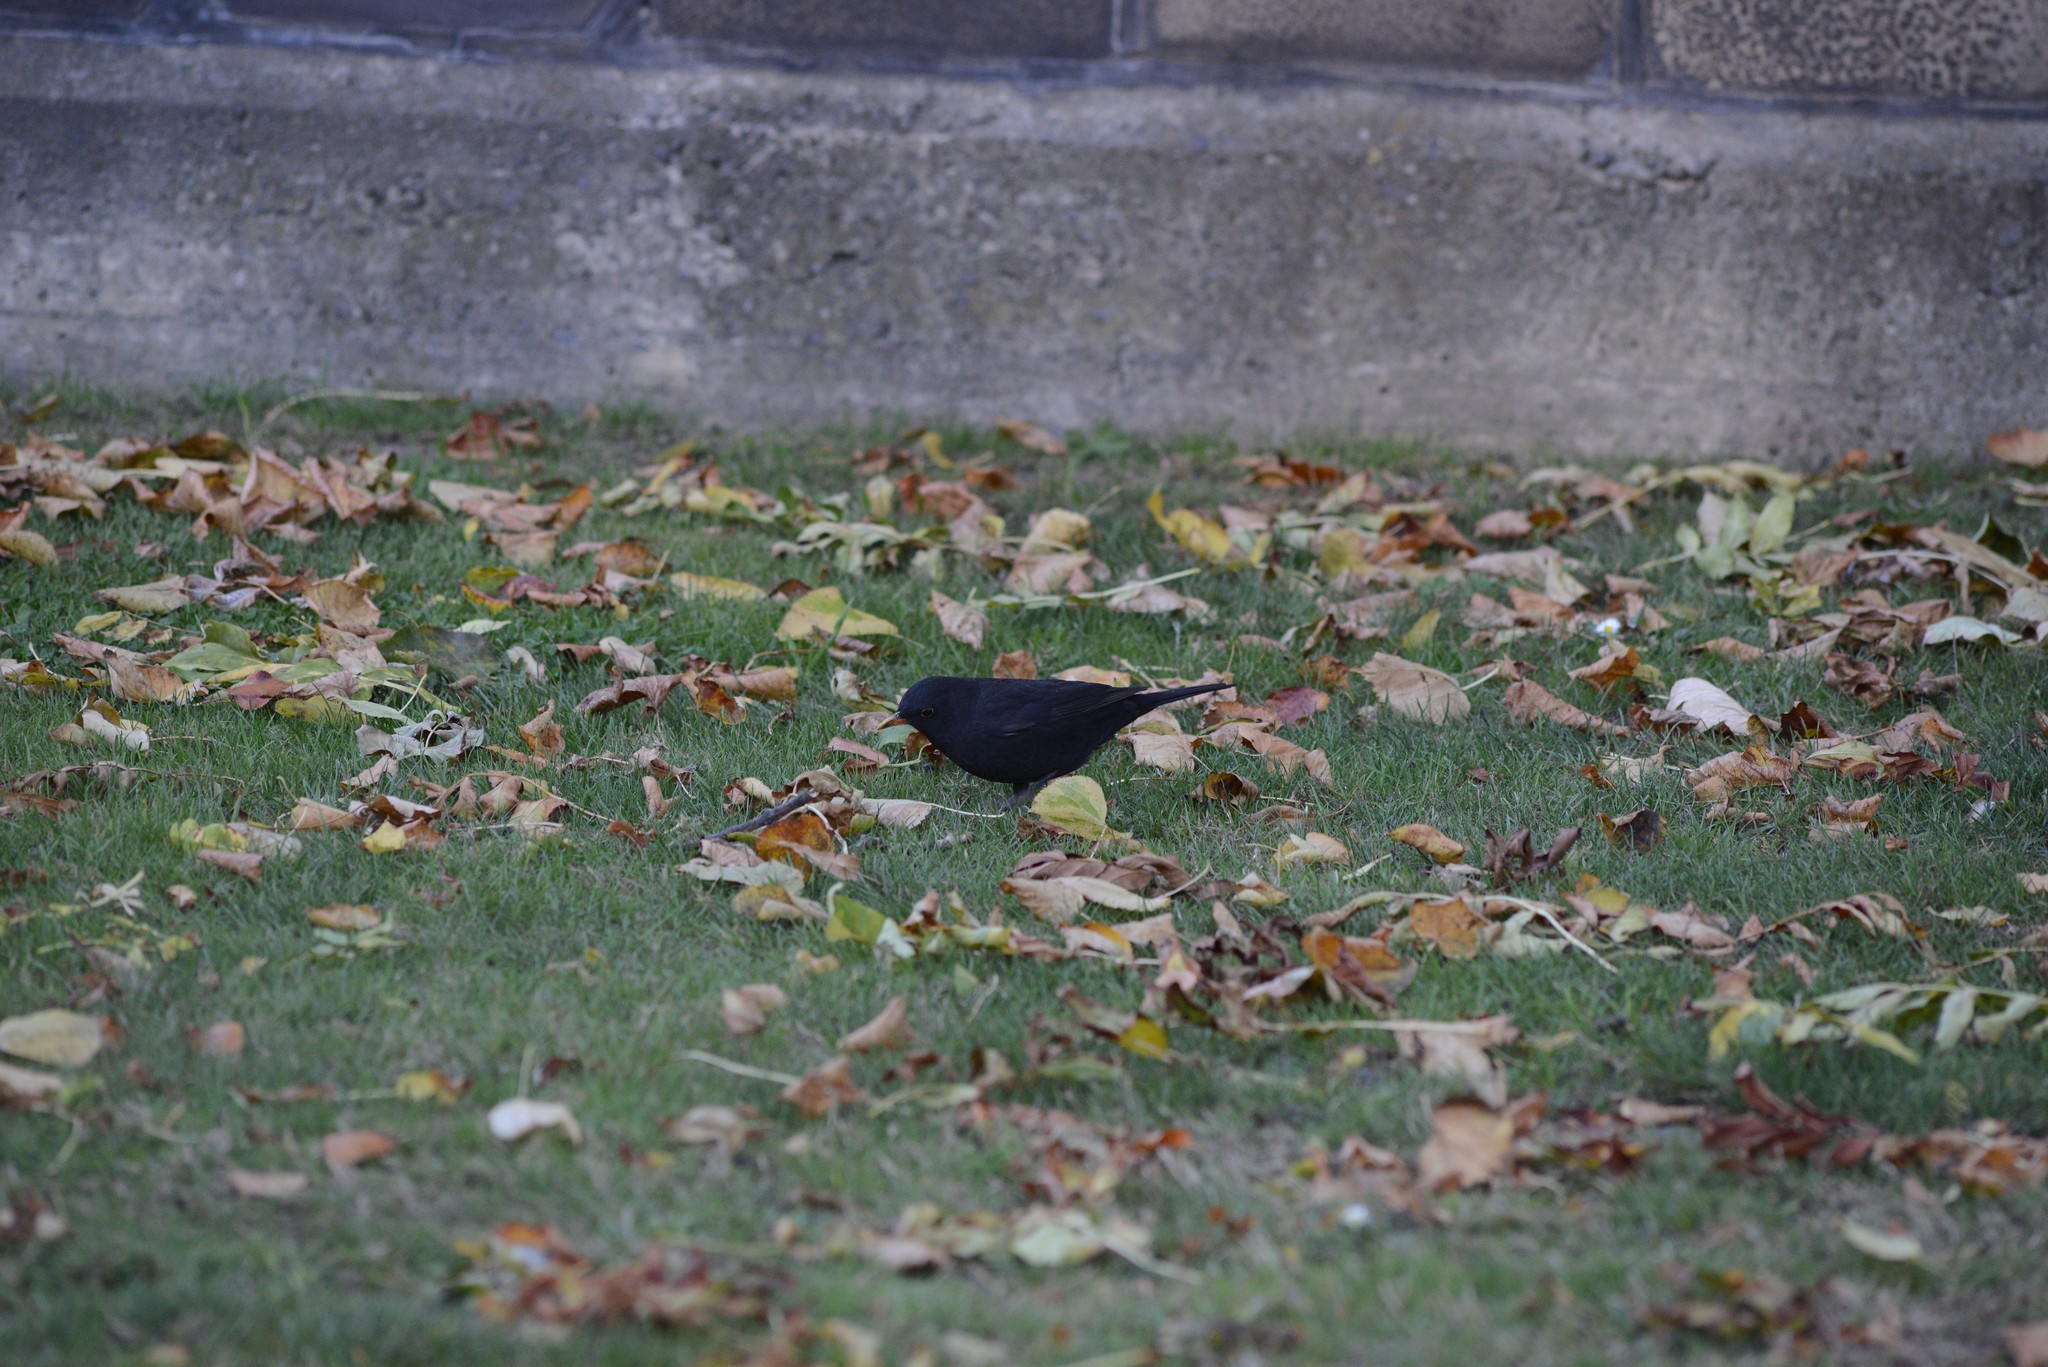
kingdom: Animalia
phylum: Chordata
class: Aves
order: Passeriformes
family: Turdidae
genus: Turdus
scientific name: Turdus merula
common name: Common blackbird
